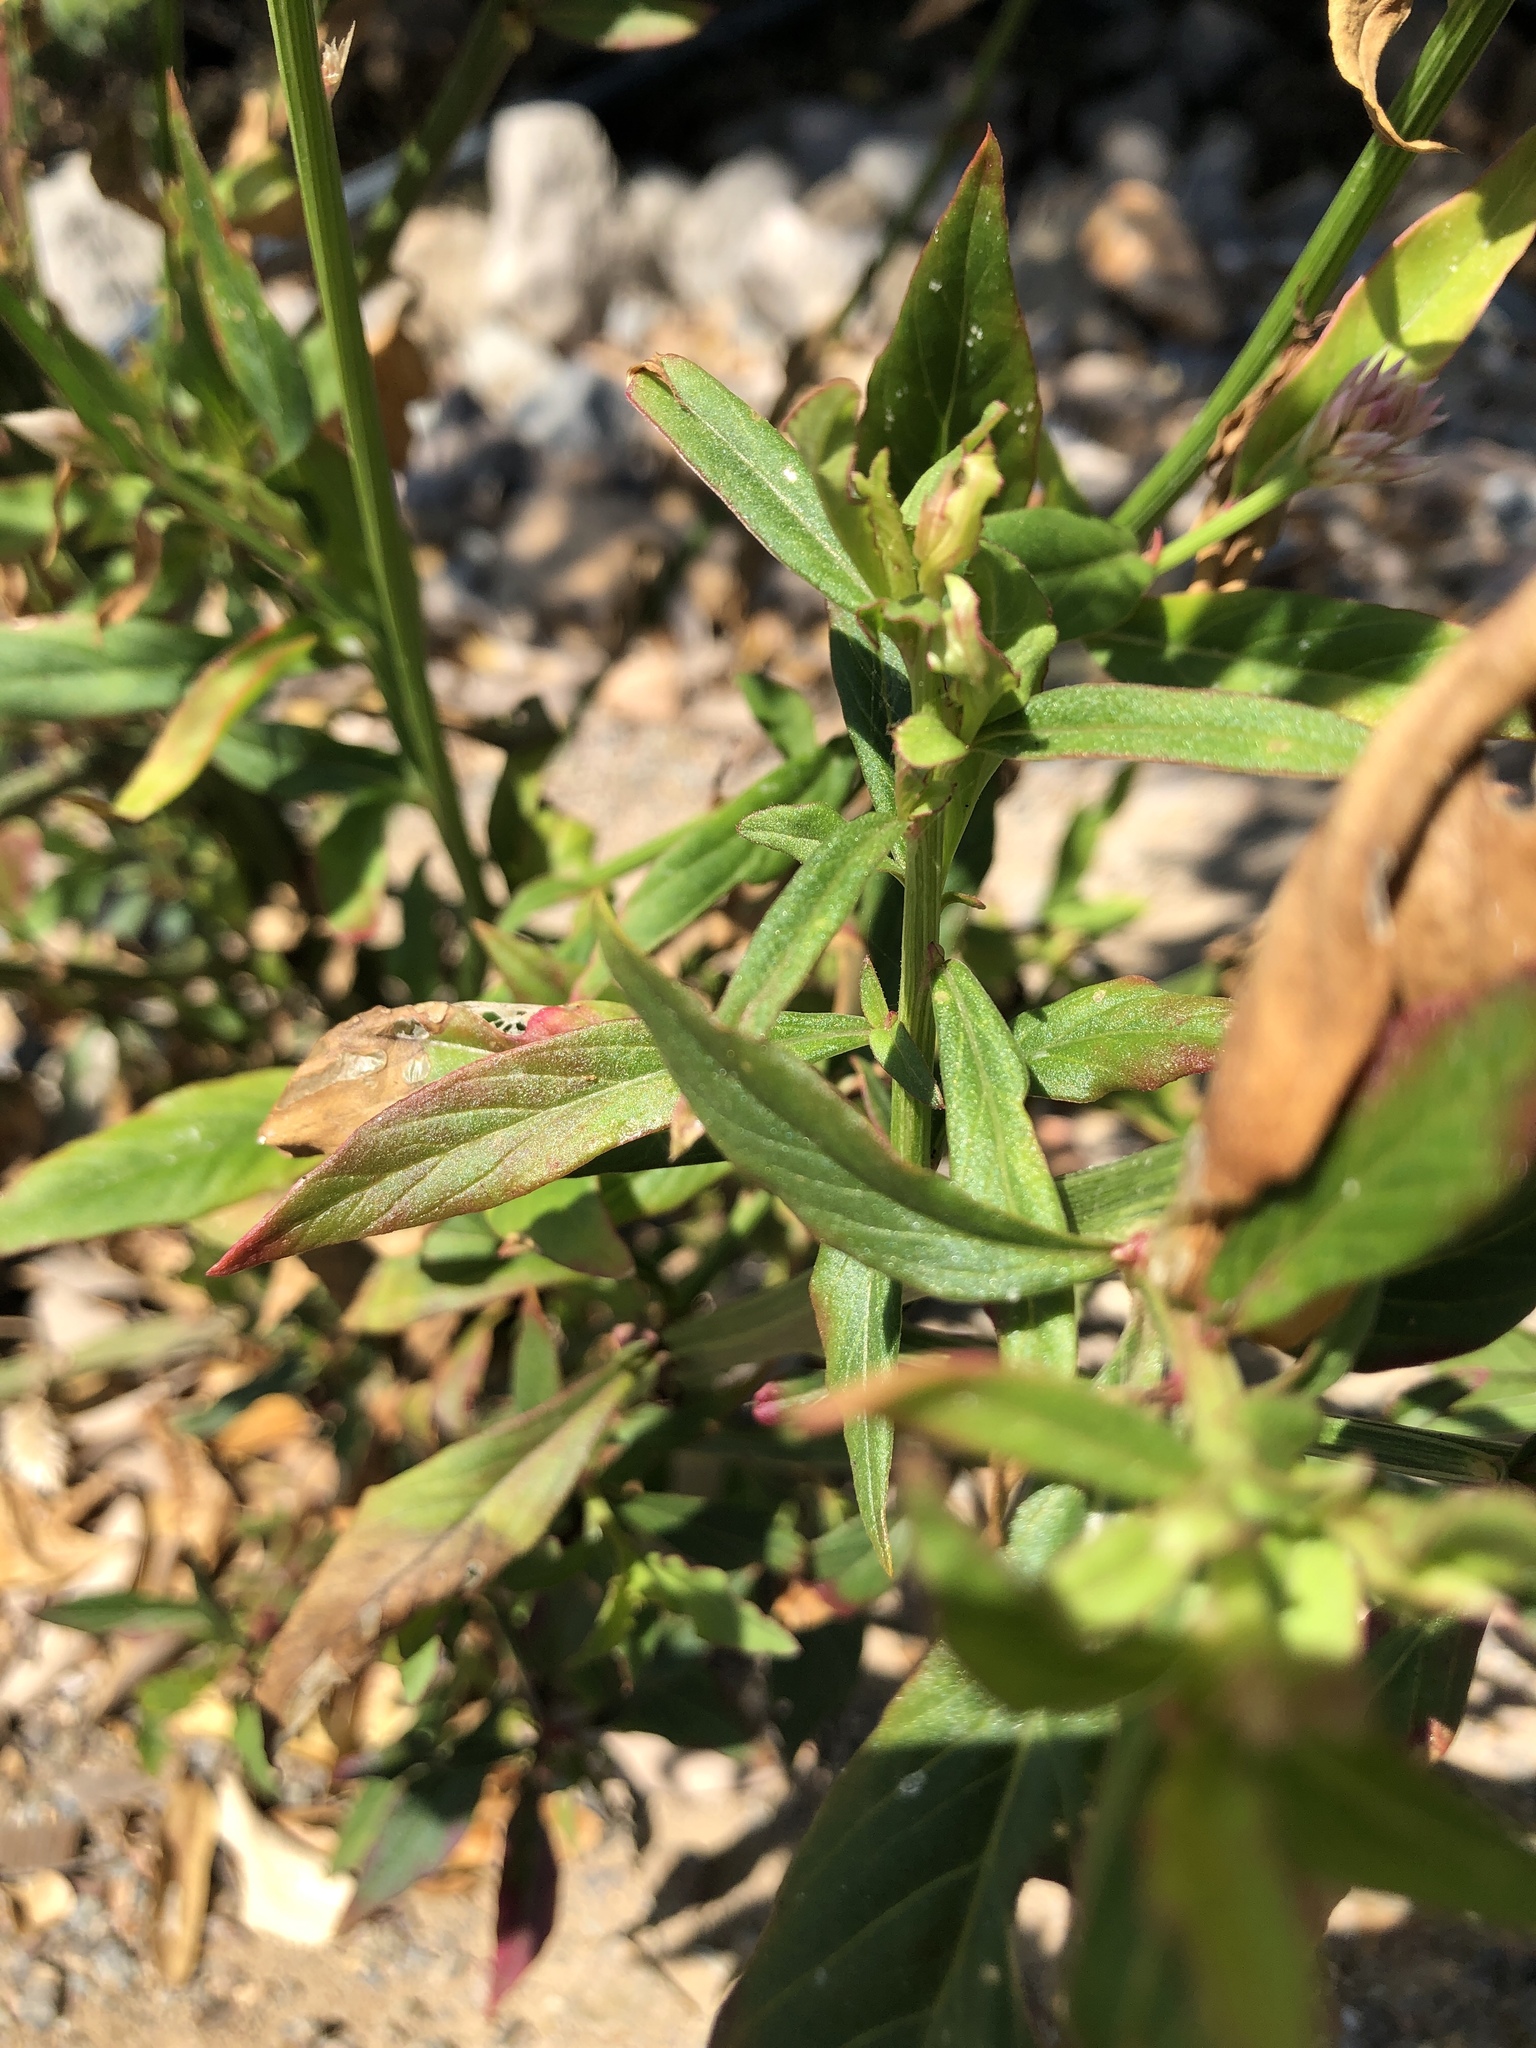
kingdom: Plantae
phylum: Tracheophyta
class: Magnoliopsida
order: Caryophyllales
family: Amaranthaceae
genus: Celosia
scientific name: Celosia argentea
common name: Feather cockscomb
